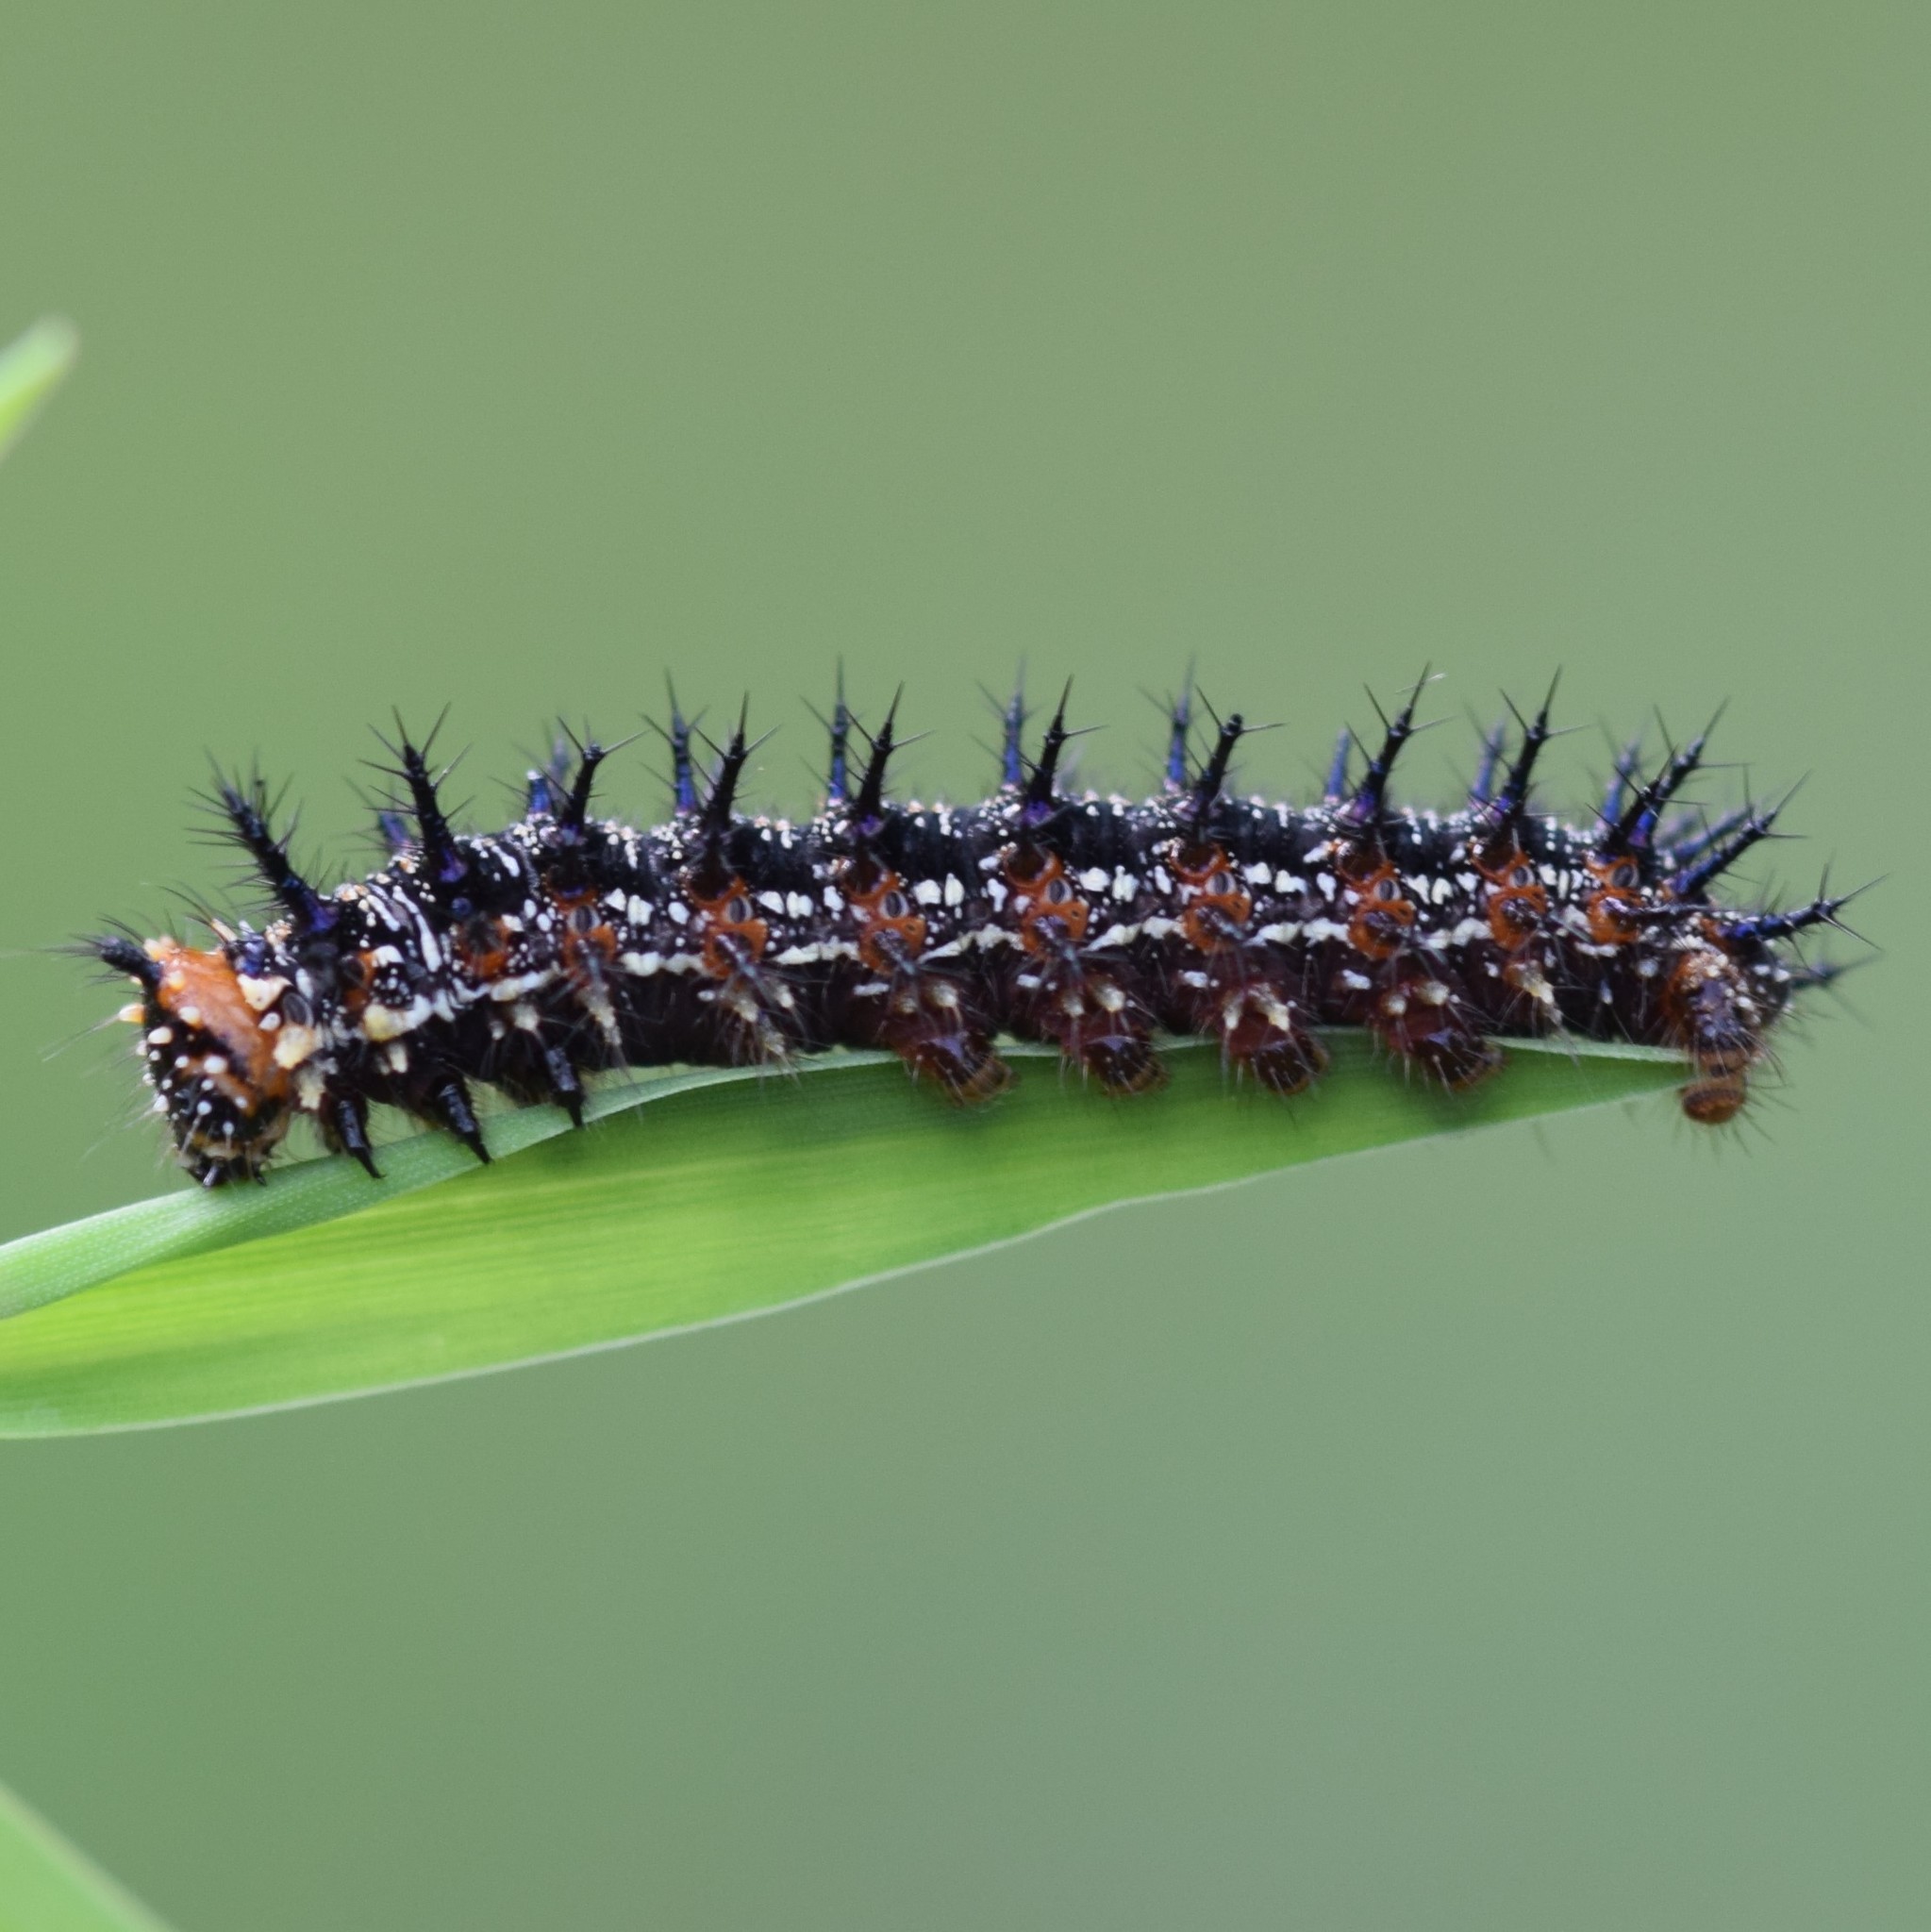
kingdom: Animalia
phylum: Arthropoda
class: Insecta
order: Lepidoptera
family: Nymphalidae
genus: Junonia
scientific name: Junonia coenia
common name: Common buckeye
